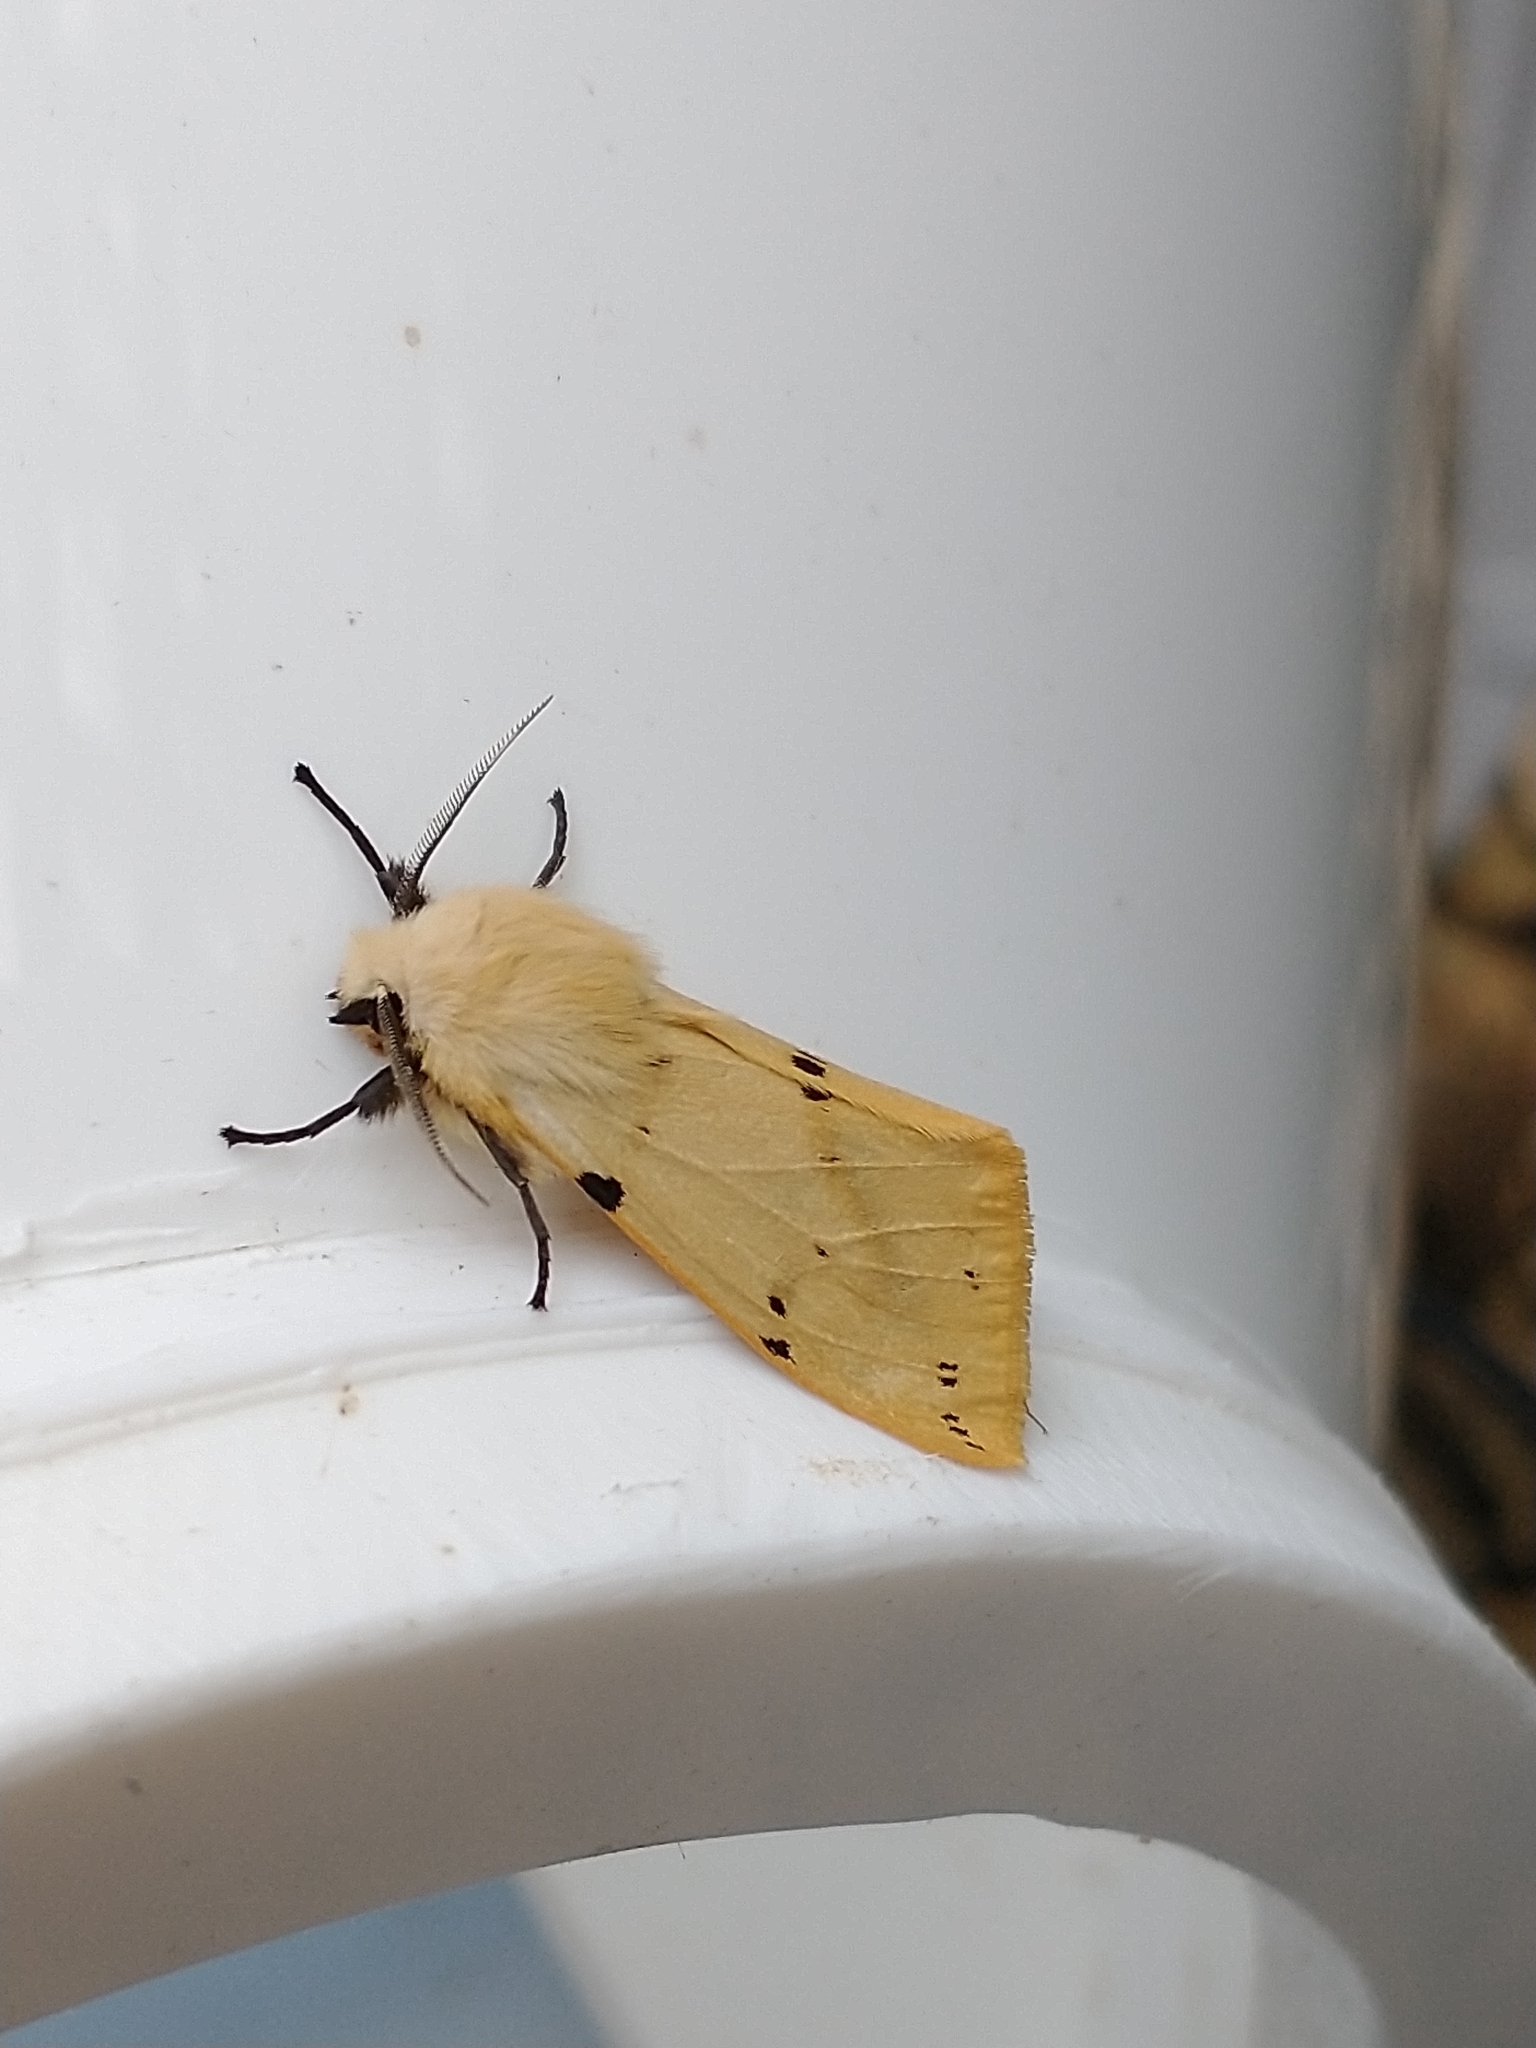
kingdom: Animalia
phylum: Arthropoda
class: Insecta
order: Lepidoptera
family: Erebidae
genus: Spilarctia
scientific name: Spilarctia lutea
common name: Buff ermine
